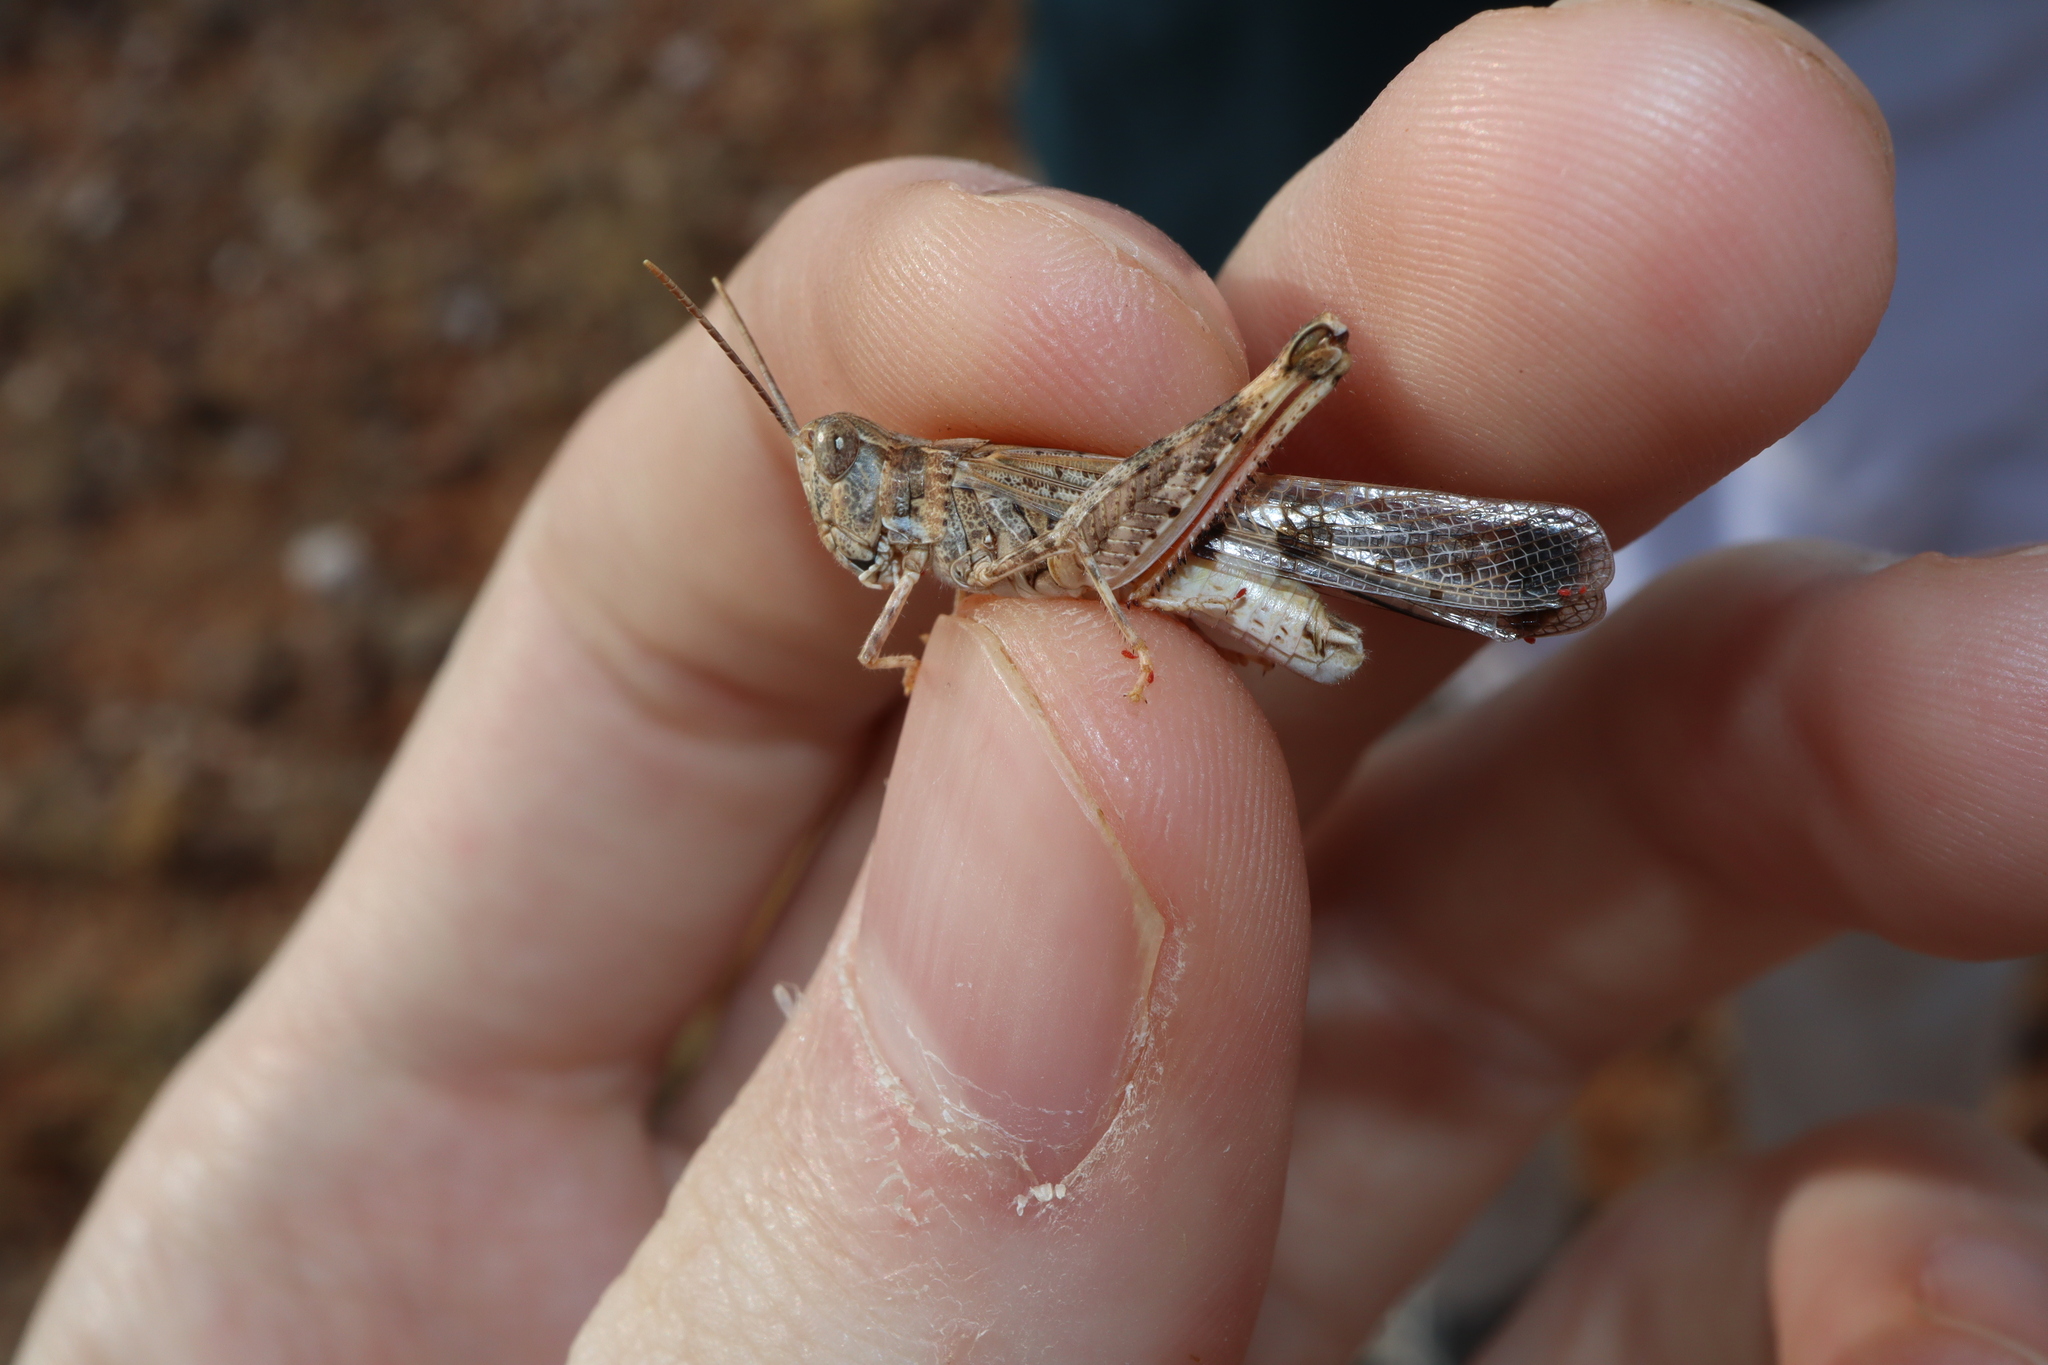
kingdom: Animalia
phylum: Arthropoda
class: Insecta
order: Orthoptera
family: Acrididae
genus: Chortoicetes
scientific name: Chortoicetes terminifera
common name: Australian plague locust
